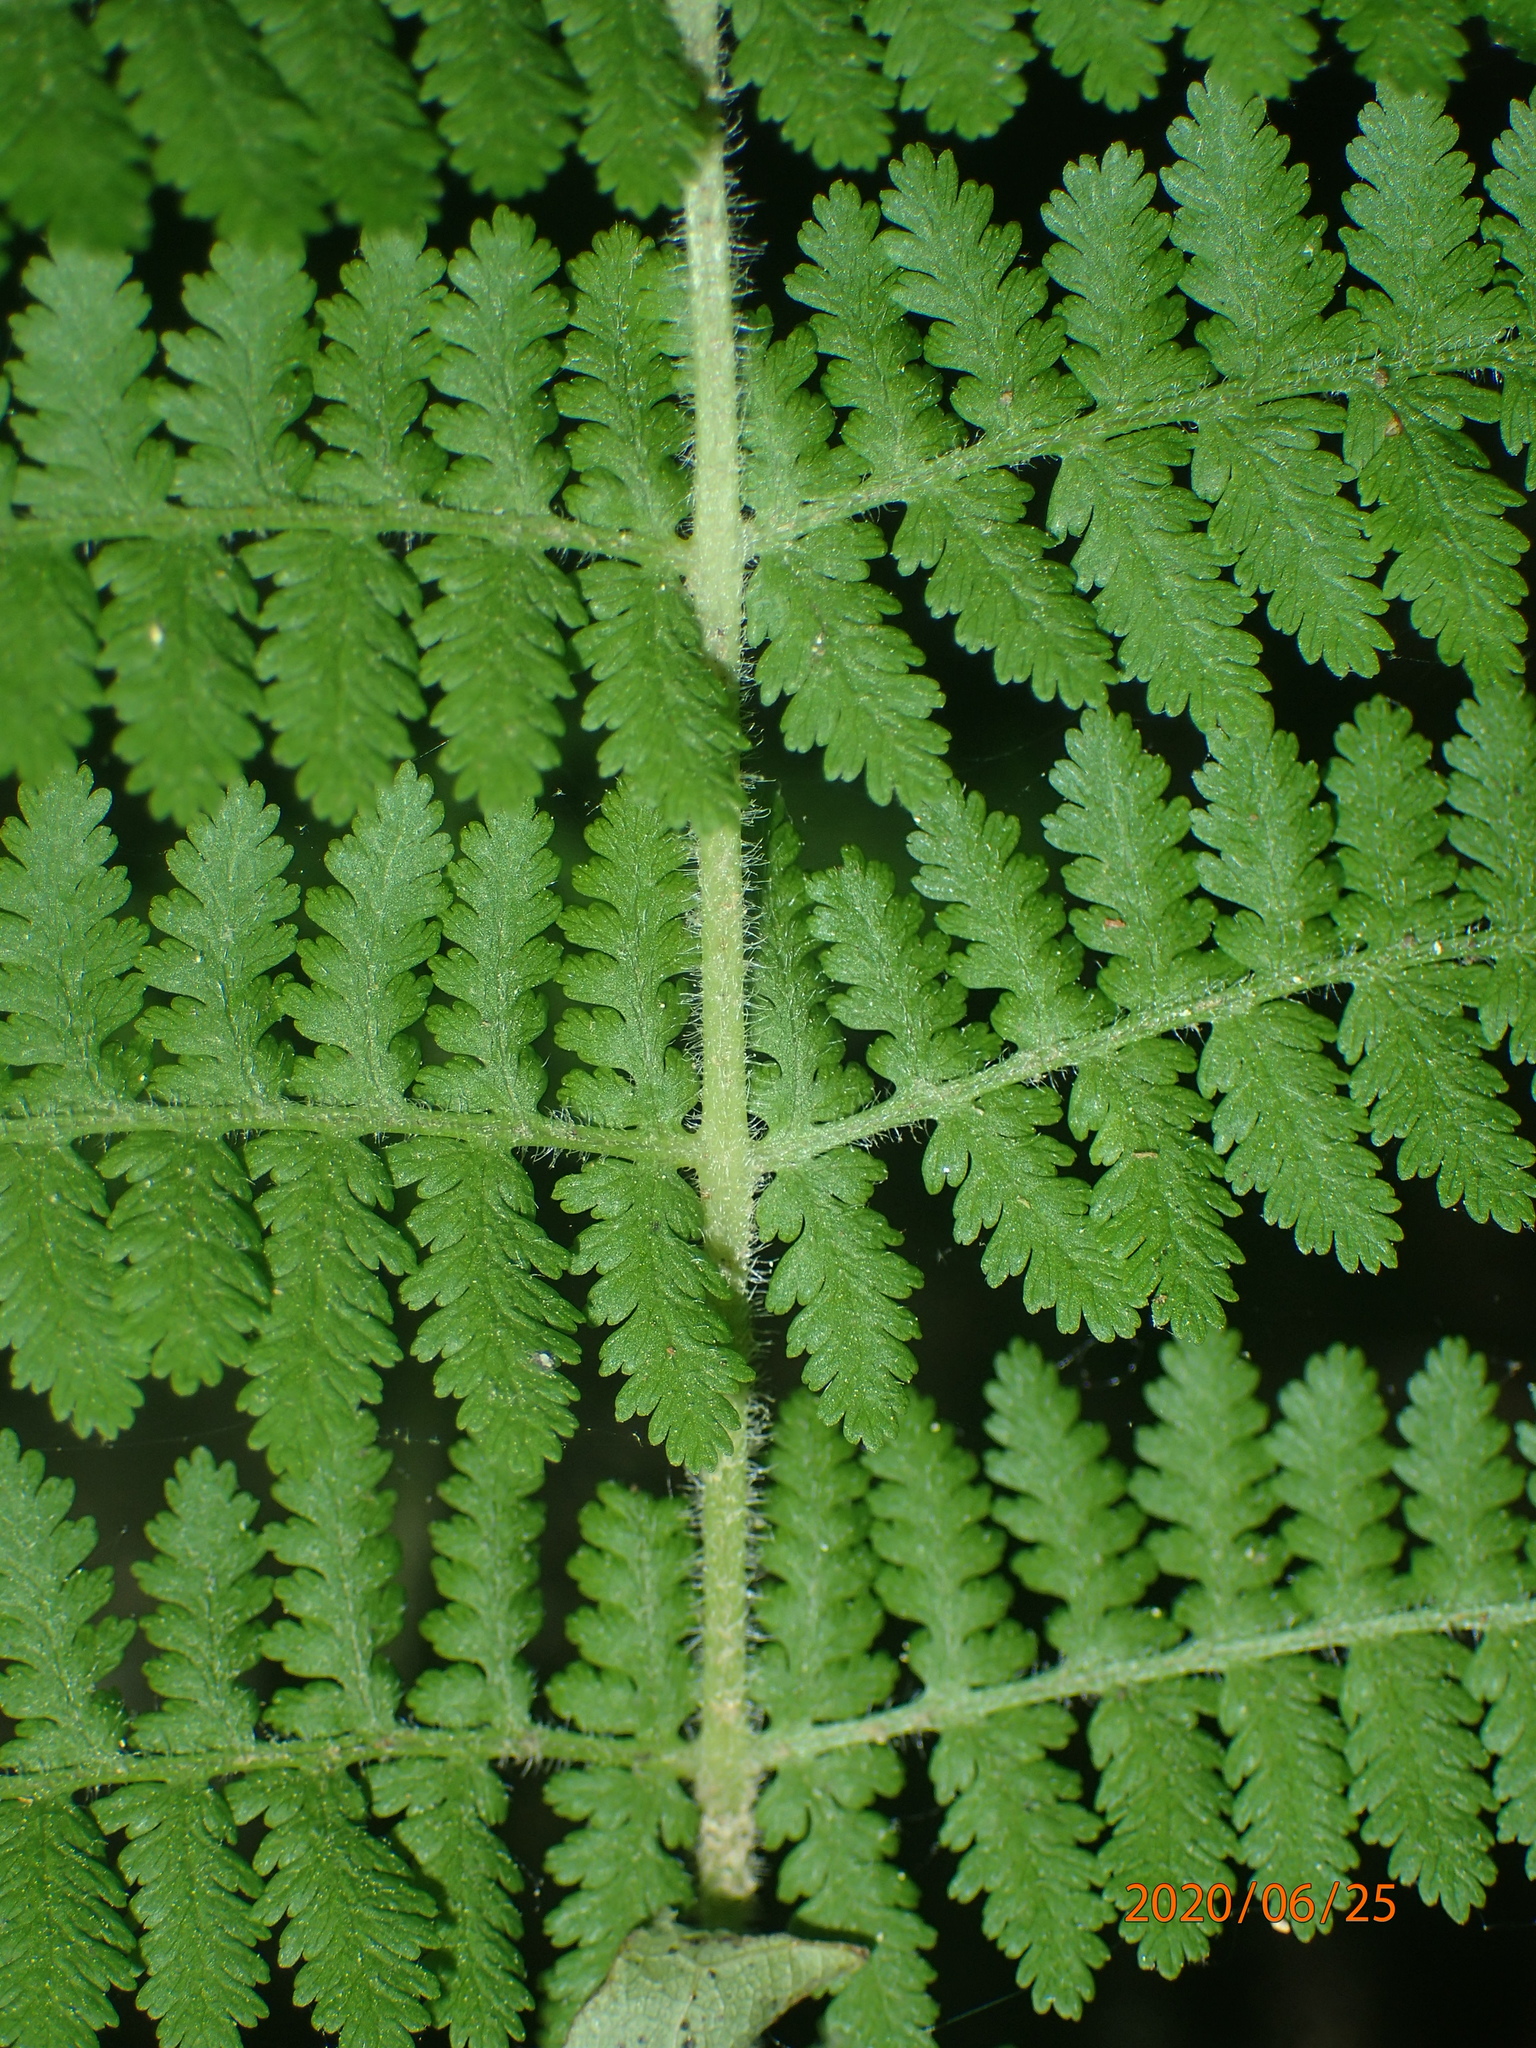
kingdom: Plantae
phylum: Tracheophyta
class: Polypodiopsida
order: Polypodiales
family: Dennstaedtiaceae
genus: Sitobolium
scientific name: Sitobolium punctilobum
